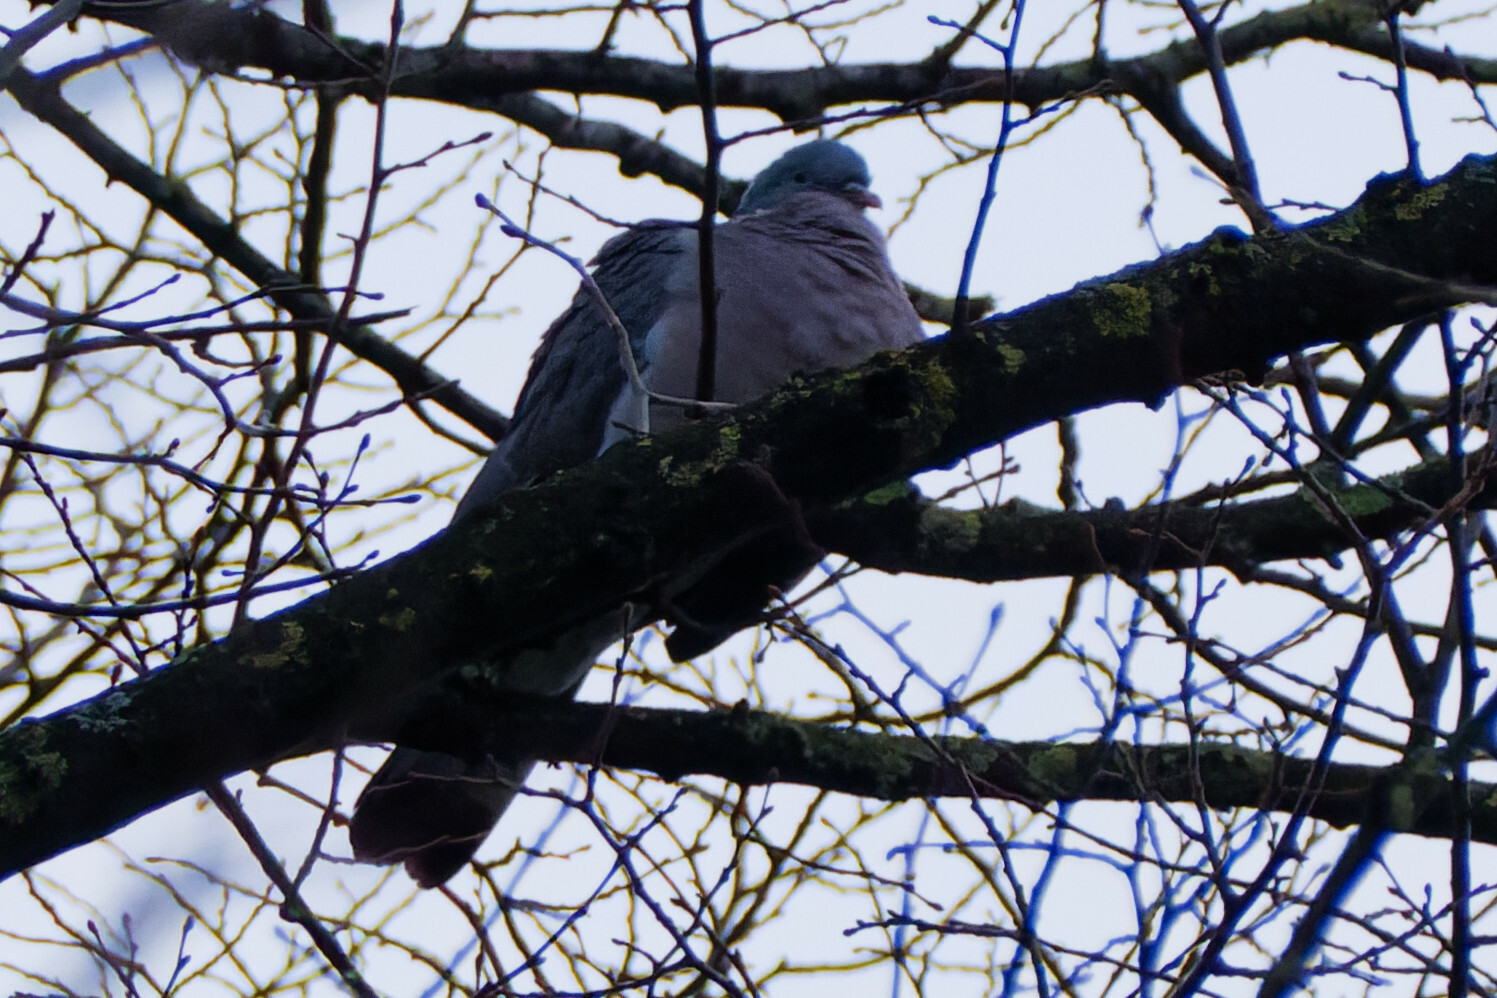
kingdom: Animalia
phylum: Chordata
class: Aves
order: Columbiformes
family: Columbidae
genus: Columba
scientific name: Columba palumbus
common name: Common wood pigeon
